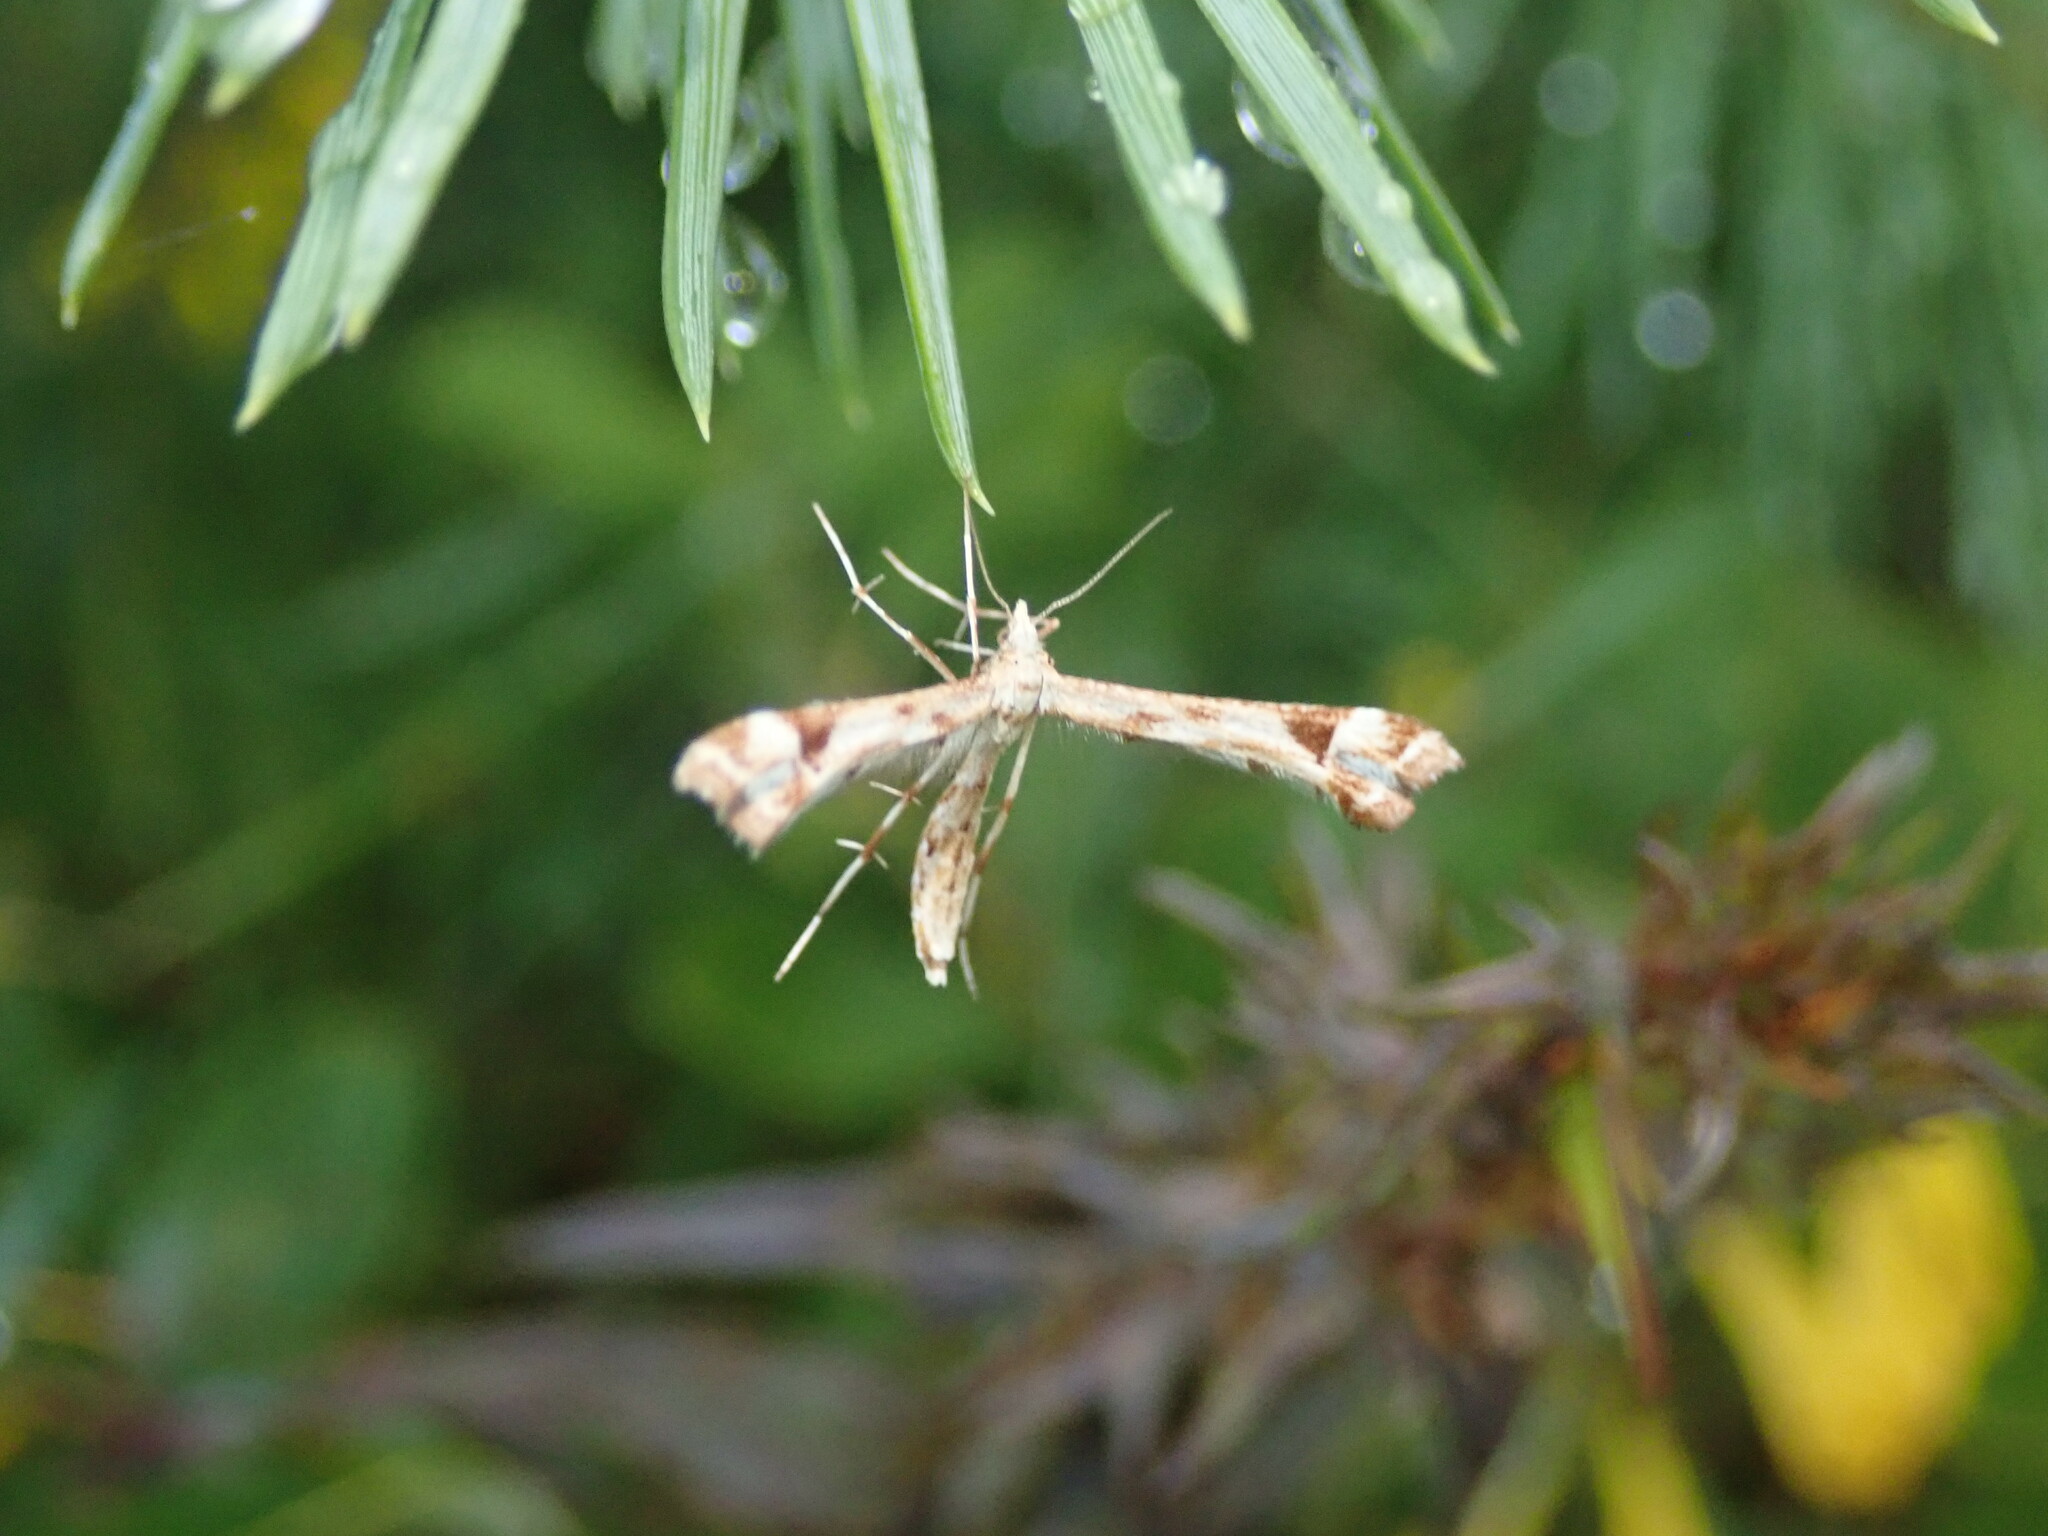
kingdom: Animalia
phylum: Arthropoda
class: Insecta
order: Lepidoptera
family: Pterophoridae
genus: Platyptilia
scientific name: Platyptilia gonodactyla
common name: Triangle plume
